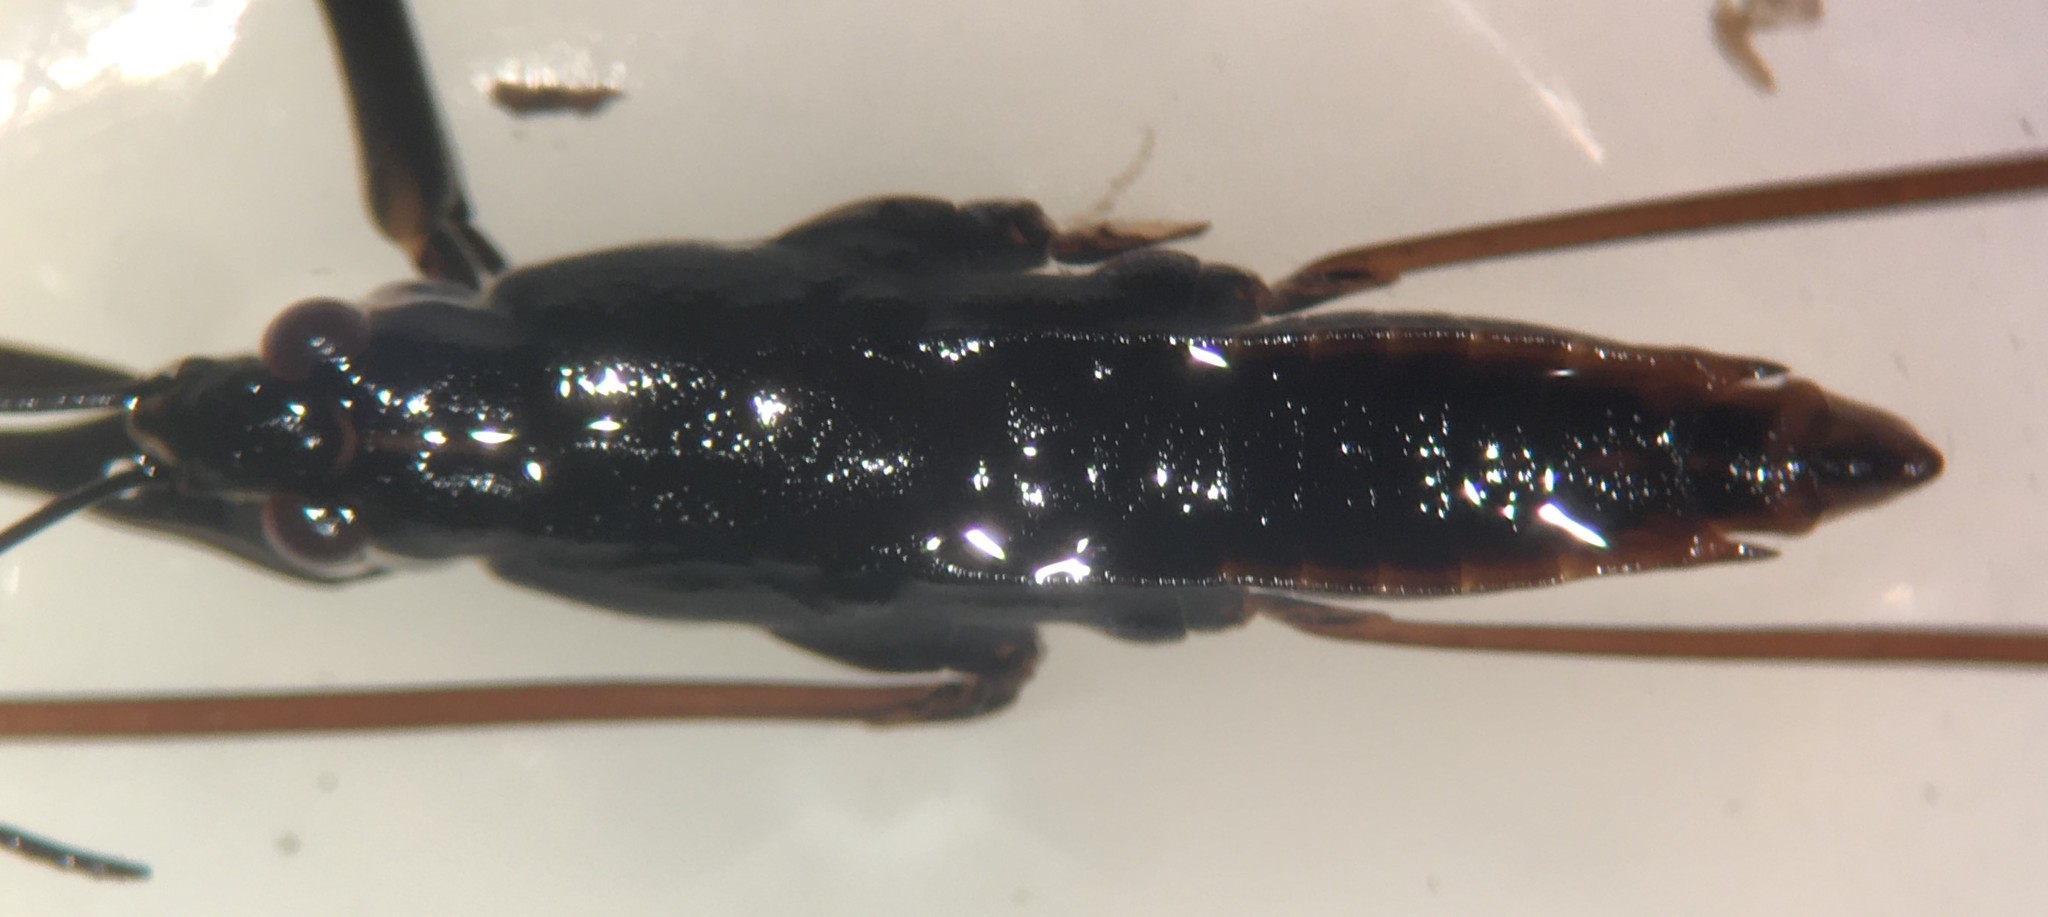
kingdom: Animalia
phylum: Arthropoda
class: Insecta
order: Hemiptera
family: Gerridae
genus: Aquarius
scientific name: Aquarius remigis
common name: Common water strider
